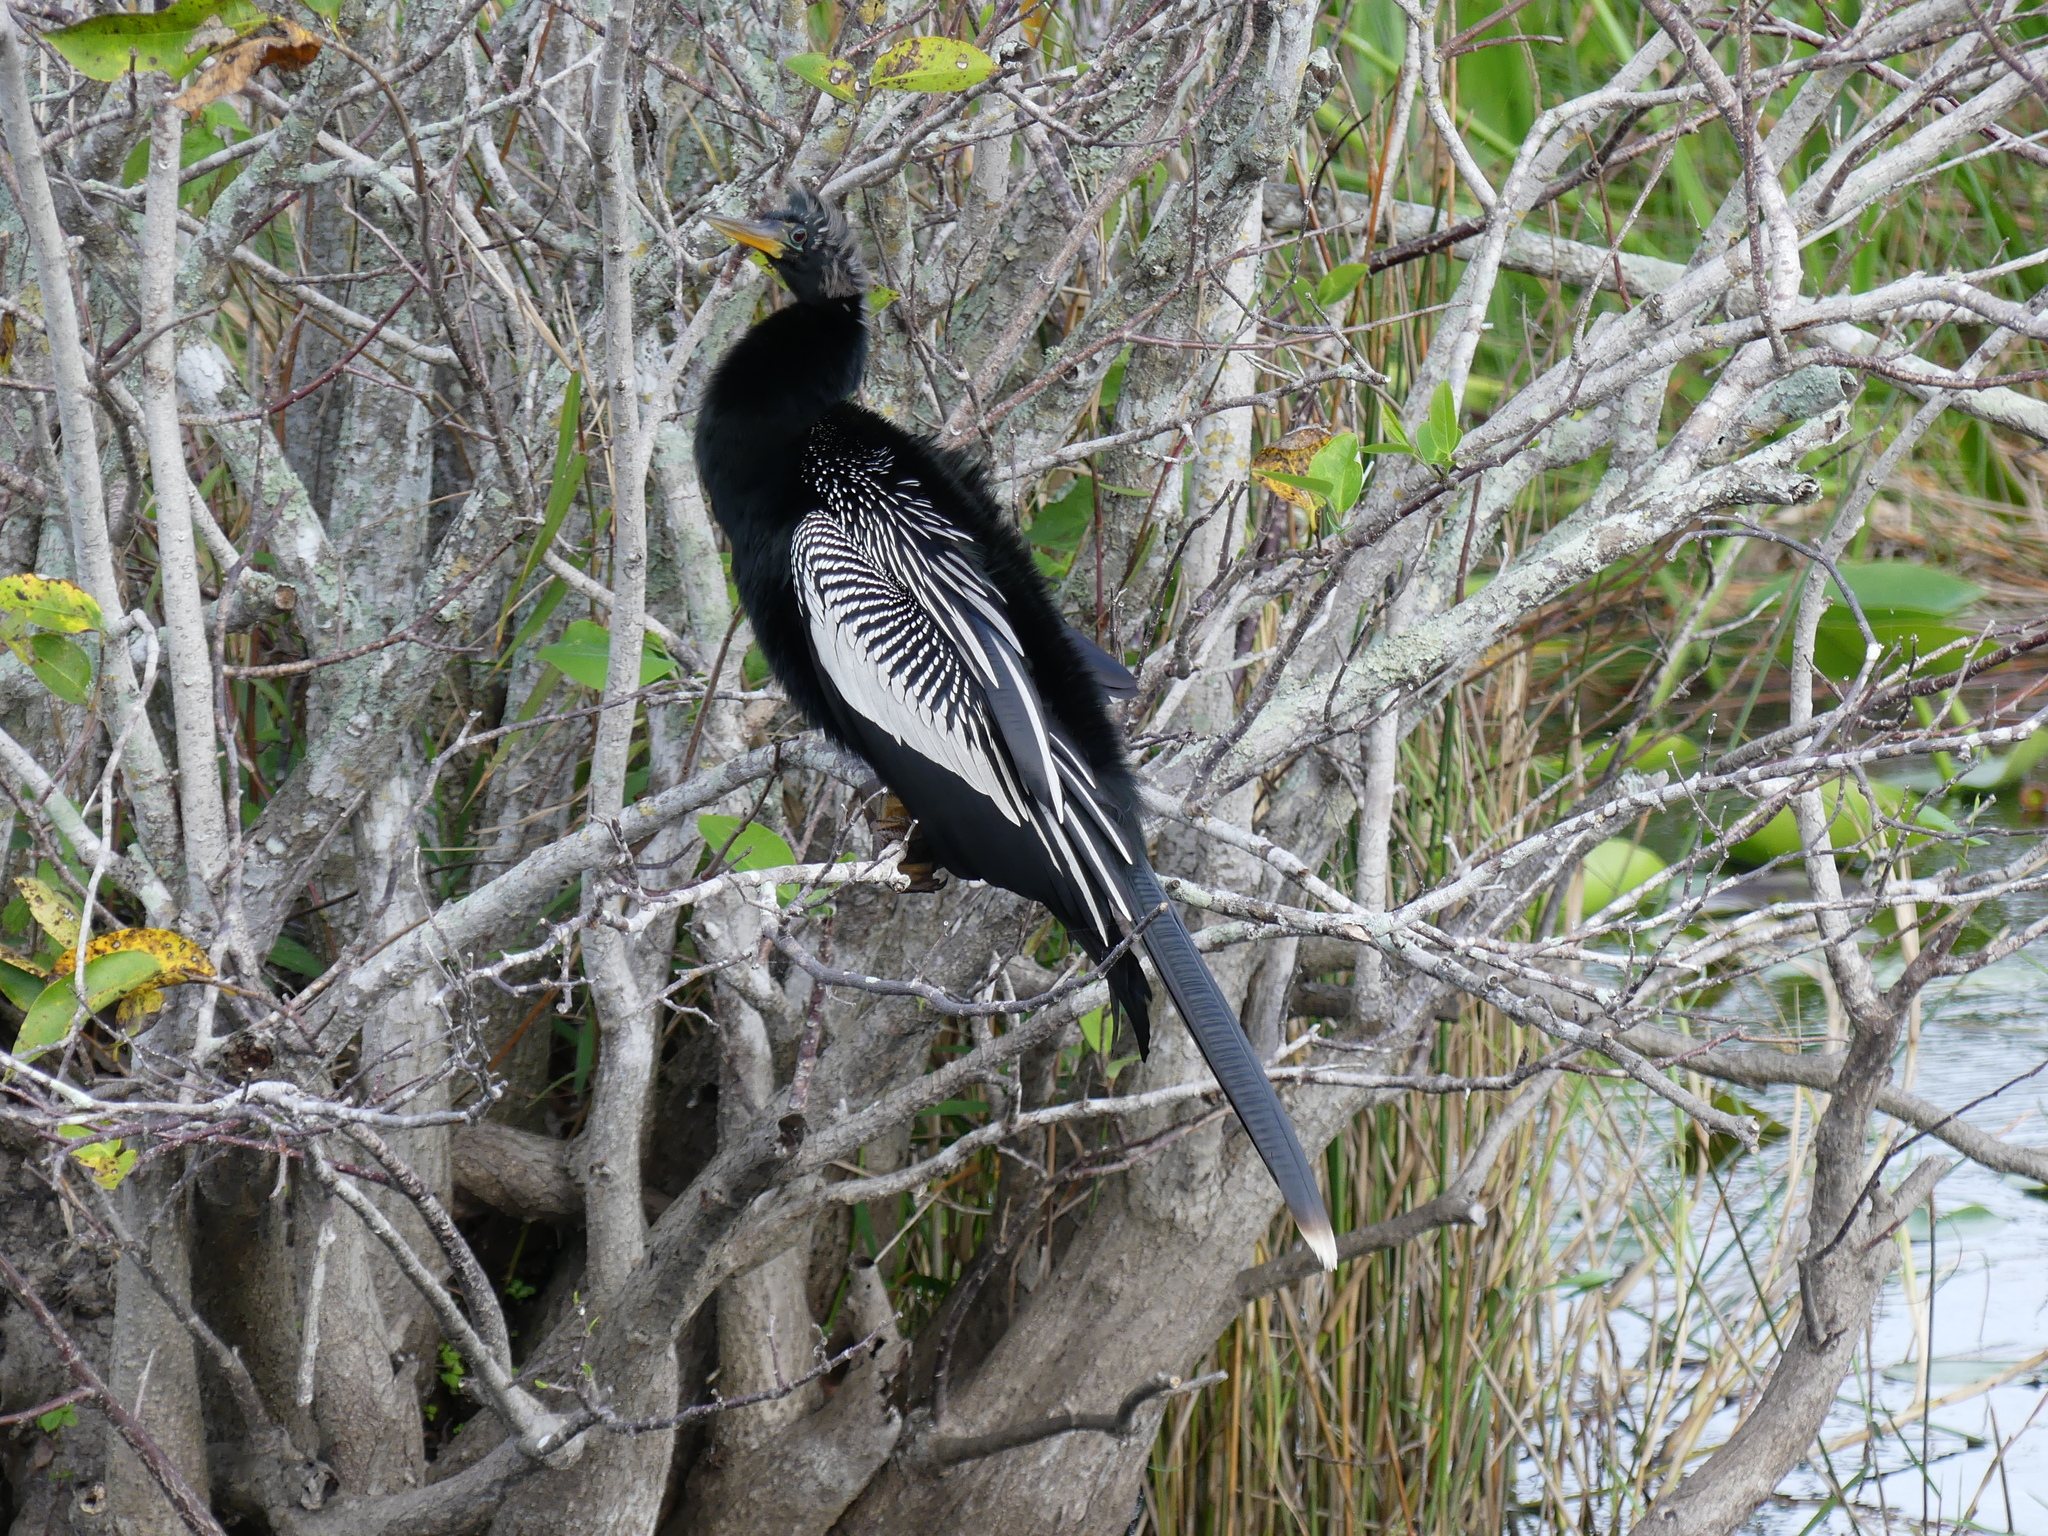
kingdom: Animalia
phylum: Chordata
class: Aves
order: Suliformes
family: Anhingidae
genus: Anhinga
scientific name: Anhinga anhinga
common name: Anhinga
